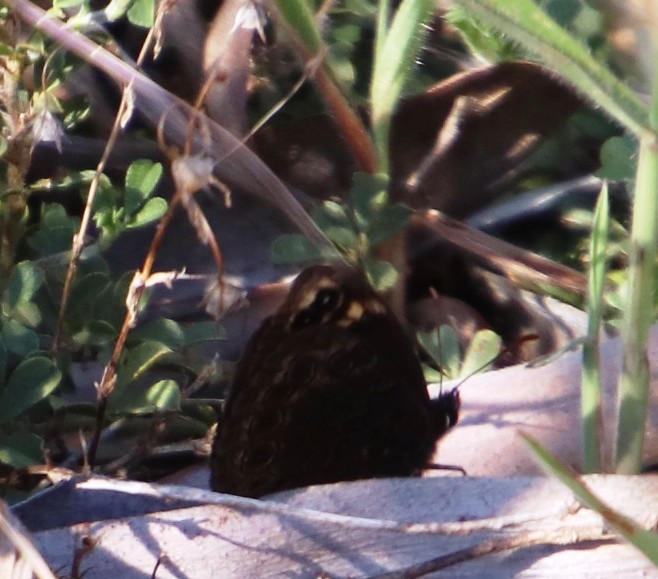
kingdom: Animalia
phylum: Arthropoda
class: Insecta
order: Lepidoptera
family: Nymphalidae
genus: Dira
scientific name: Dira clytus
